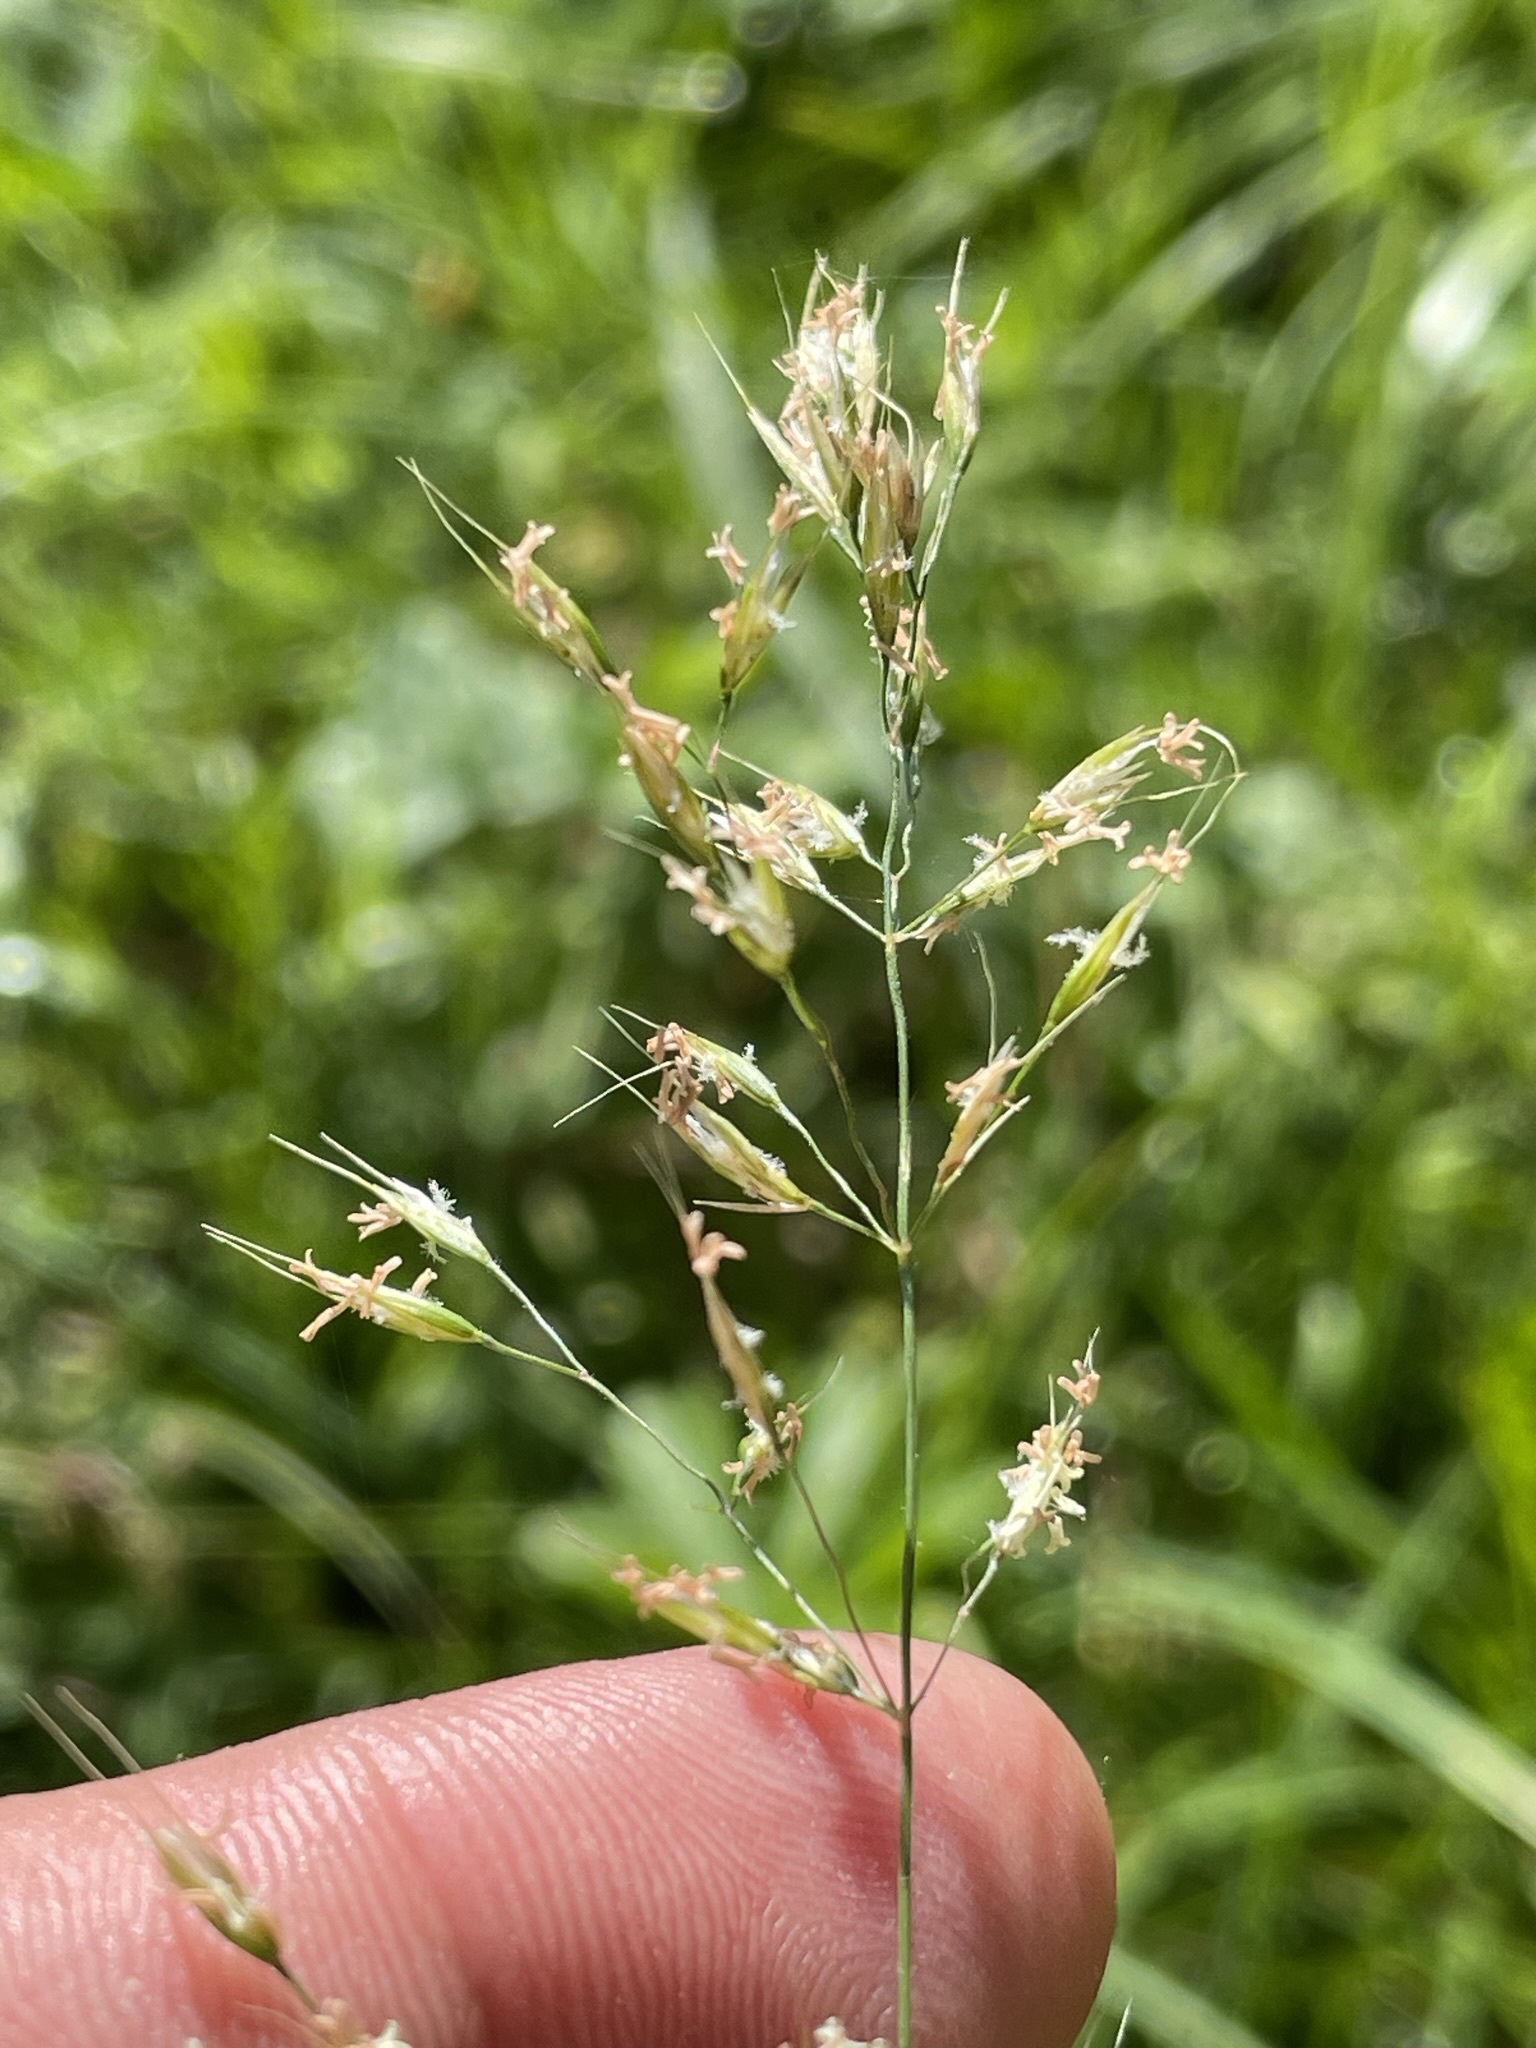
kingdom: Plantae
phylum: Tracheophyta
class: Liliopsida
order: Poales
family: Poaceae
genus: Trisetum
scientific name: Trisetum flavescens
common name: Yellow oat-grass
